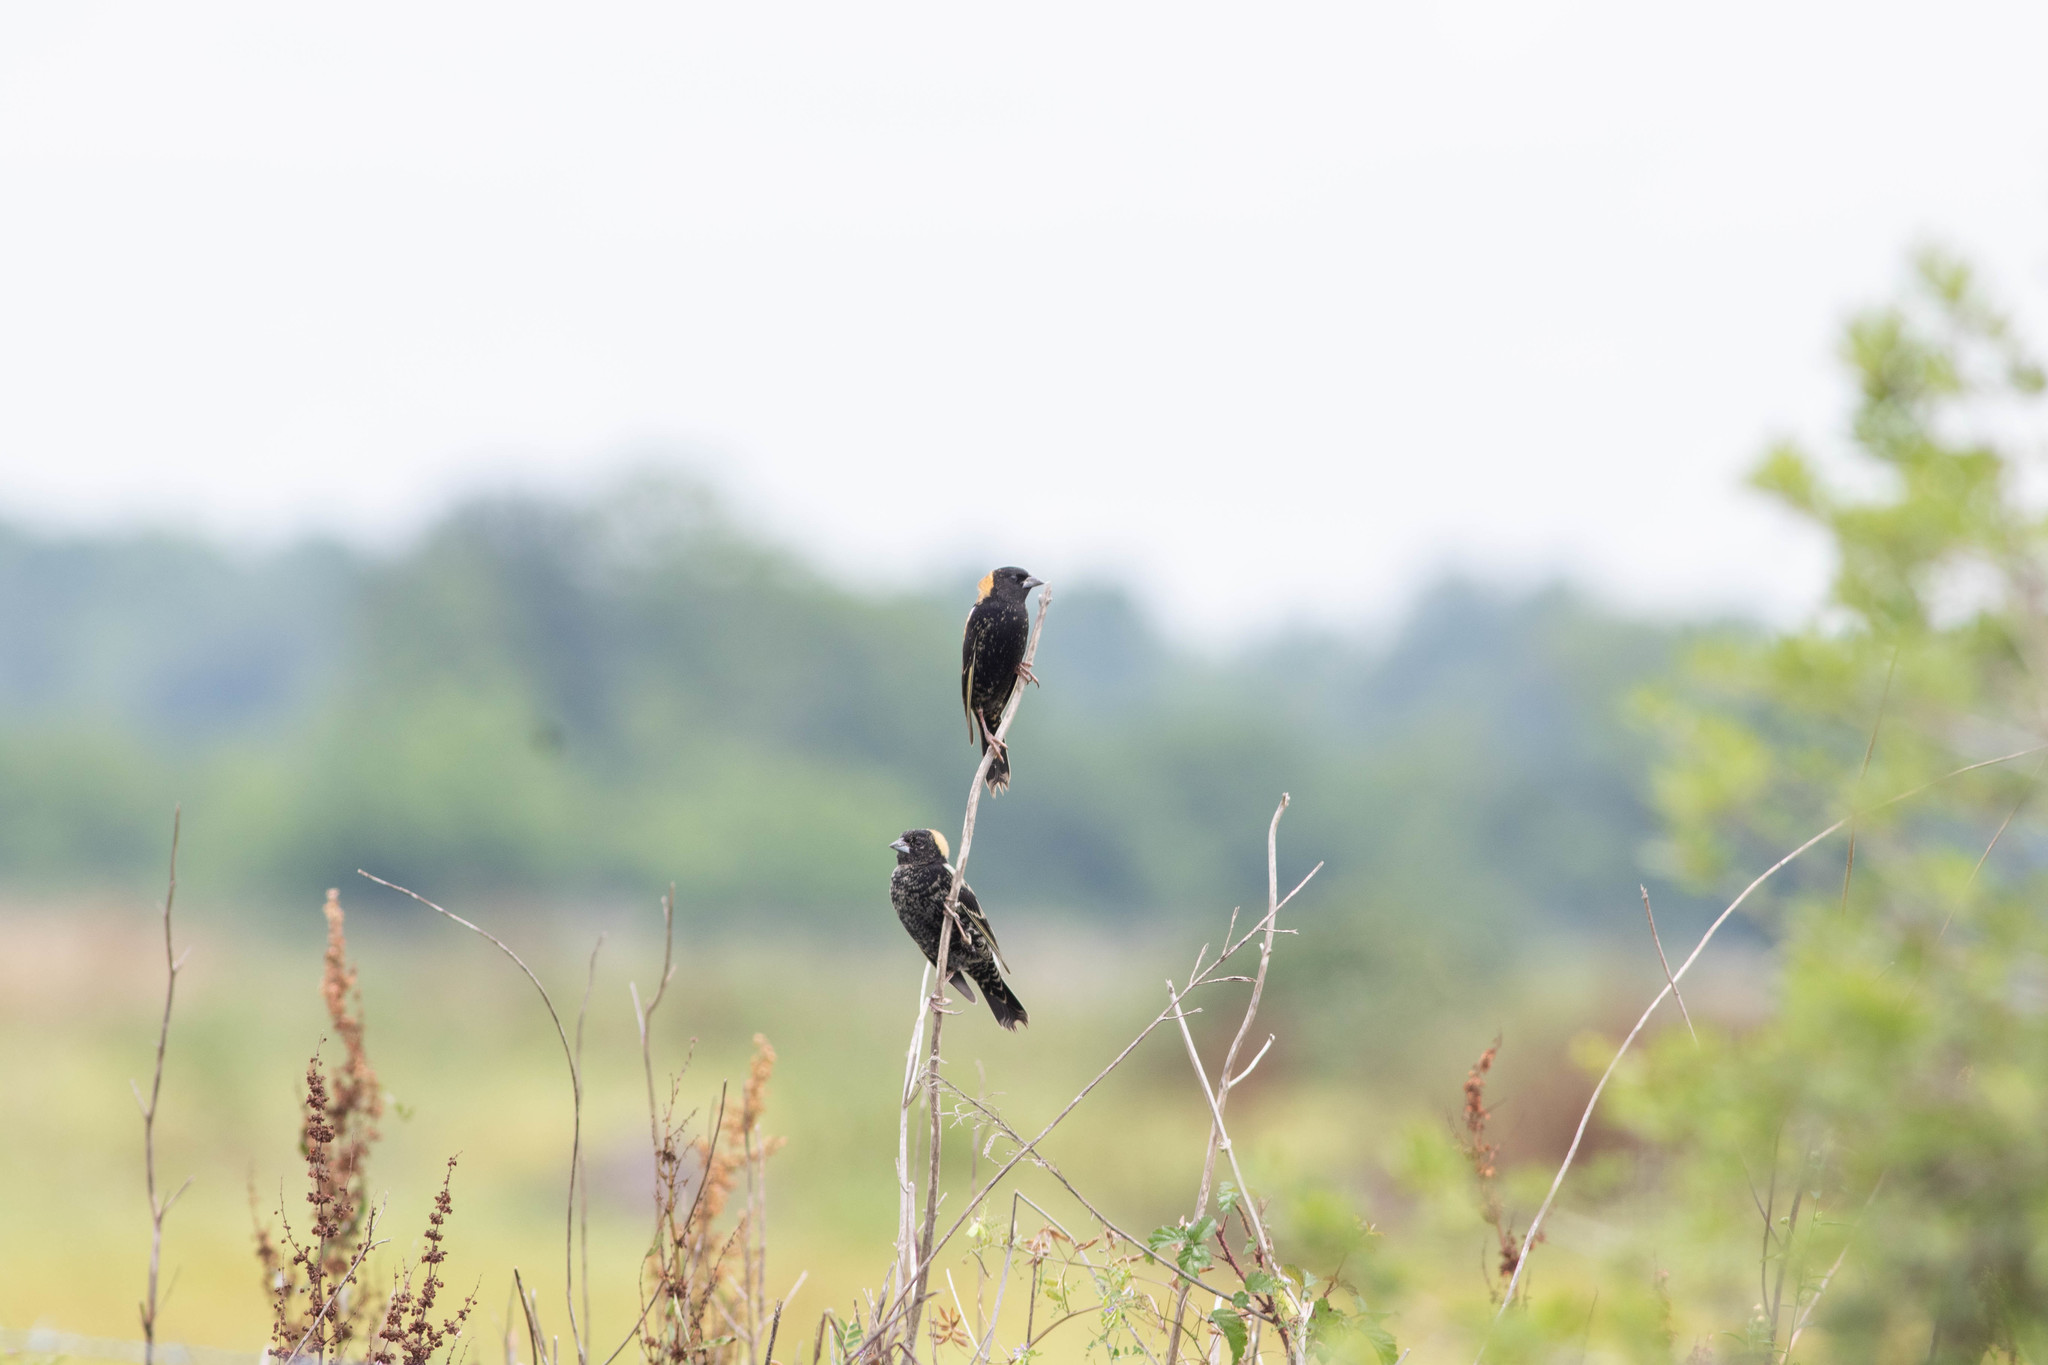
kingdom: Animalia
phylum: Chordata
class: Aves
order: Passeriformes
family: Icteridae
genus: Dolichonyx
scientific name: Dolichonyx oryzivorus
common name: Bobolink
